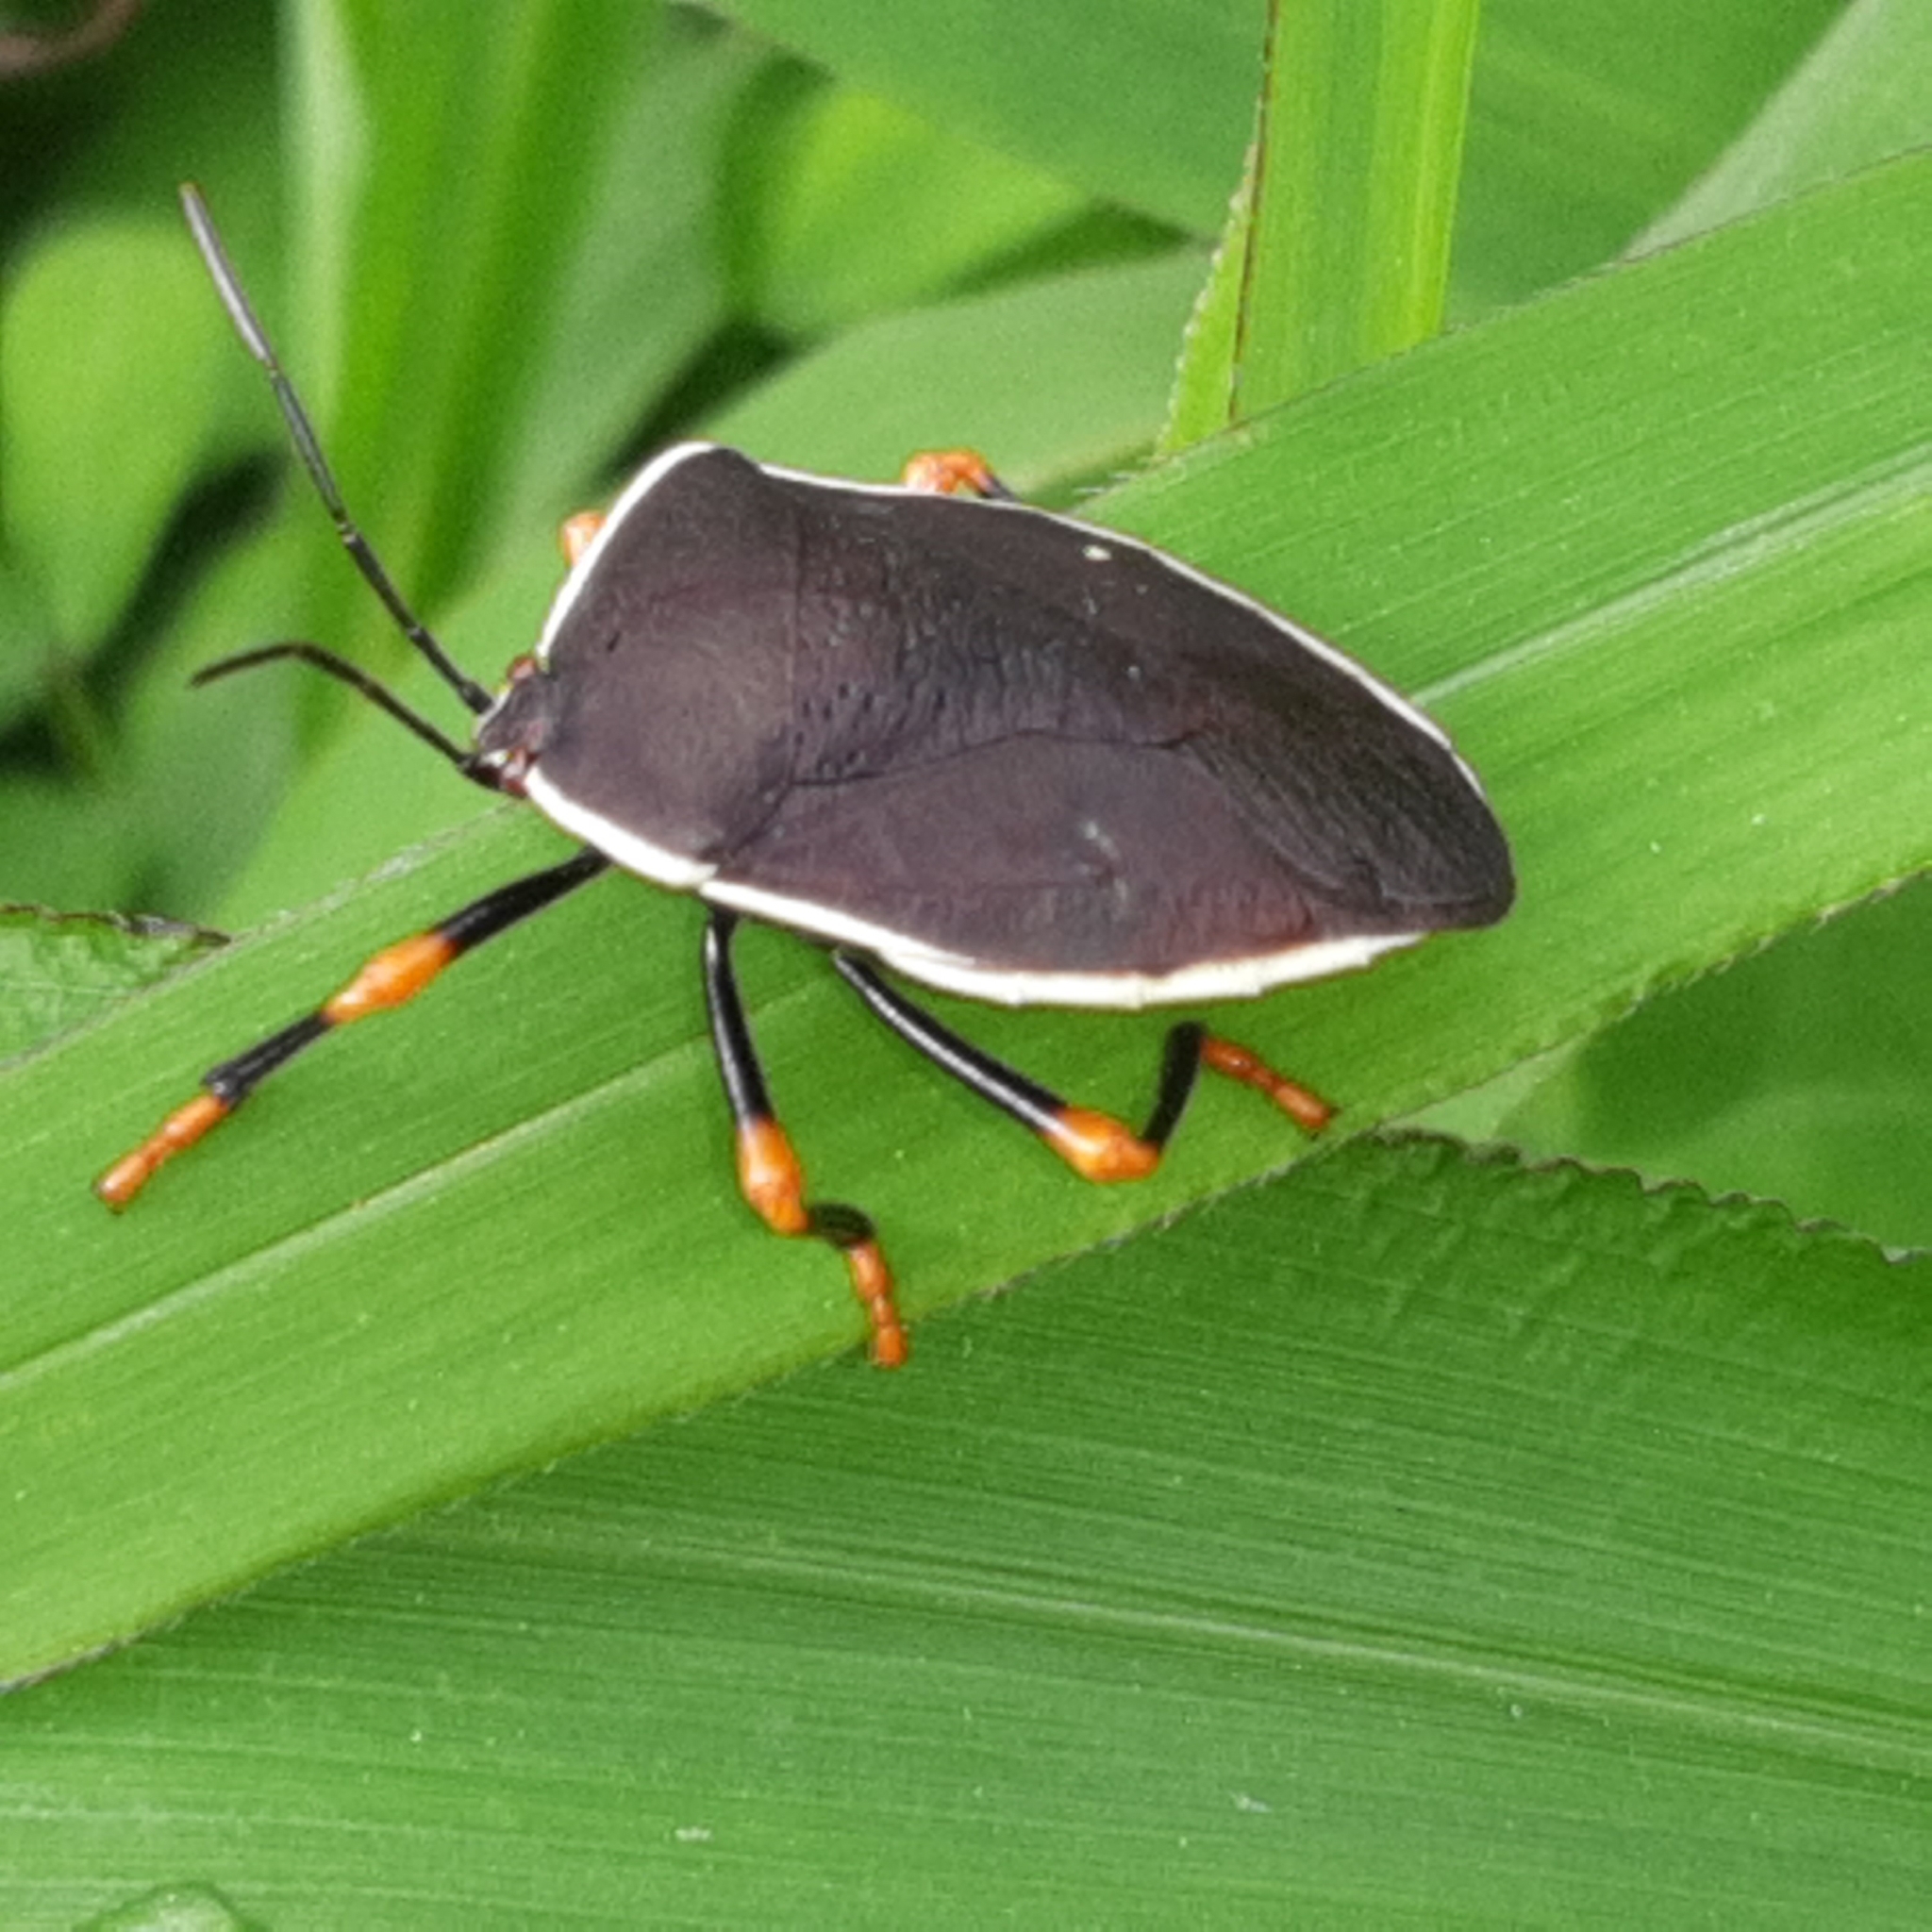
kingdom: Animalia
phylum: Arthropoda
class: Insecta
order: Hemiptera
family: Pentatomidae
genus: Brachystethus
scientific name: Brachystethus improvisus
